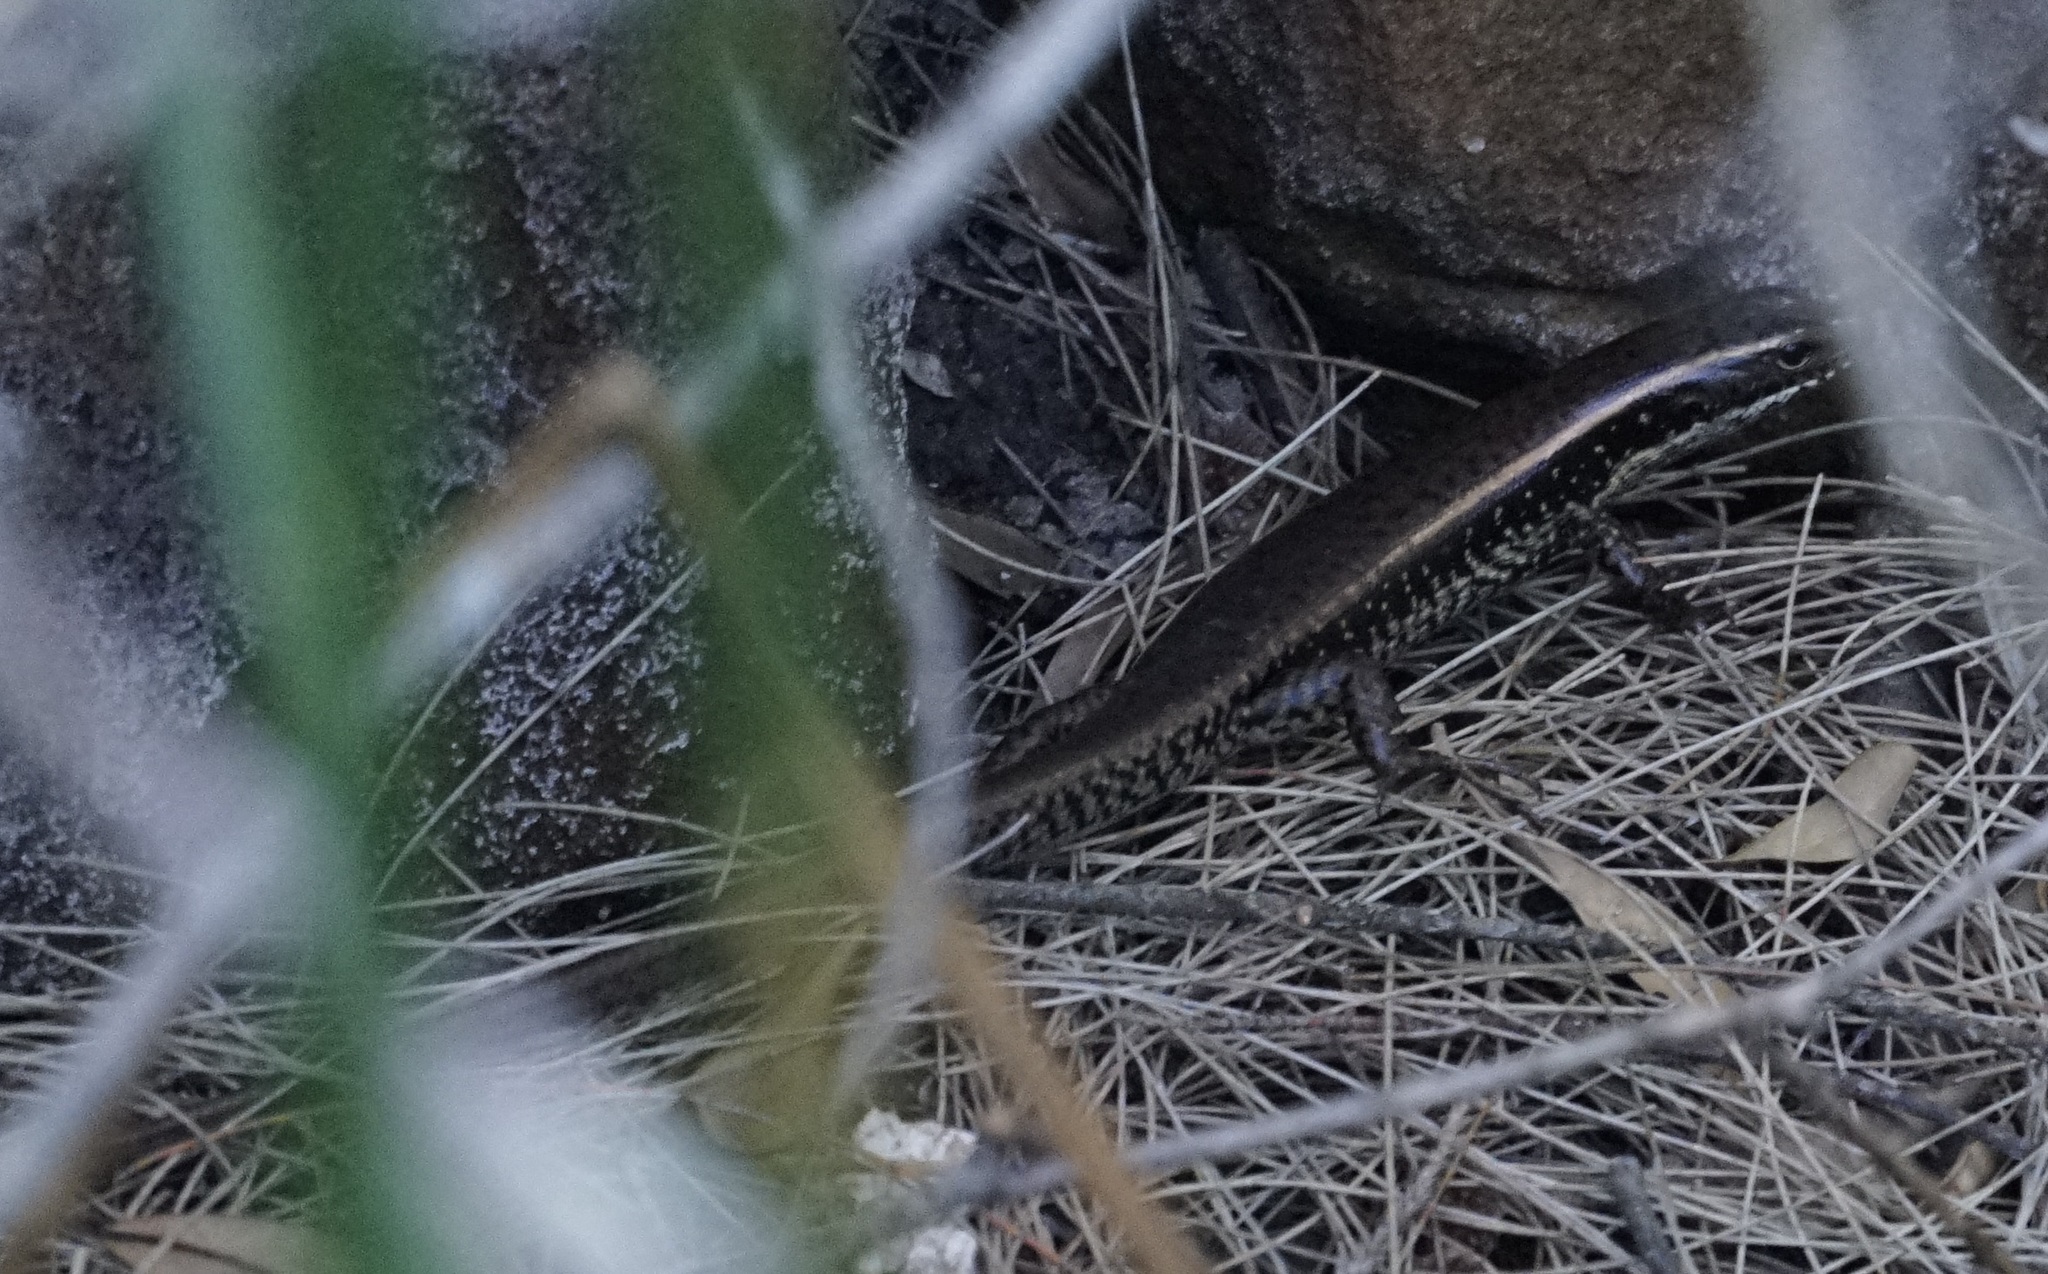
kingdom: Animalia
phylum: Chordata
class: Squamata
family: Scincidae
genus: Eulamprus
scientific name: Eulamprus quoyii
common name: Eastern water skink
